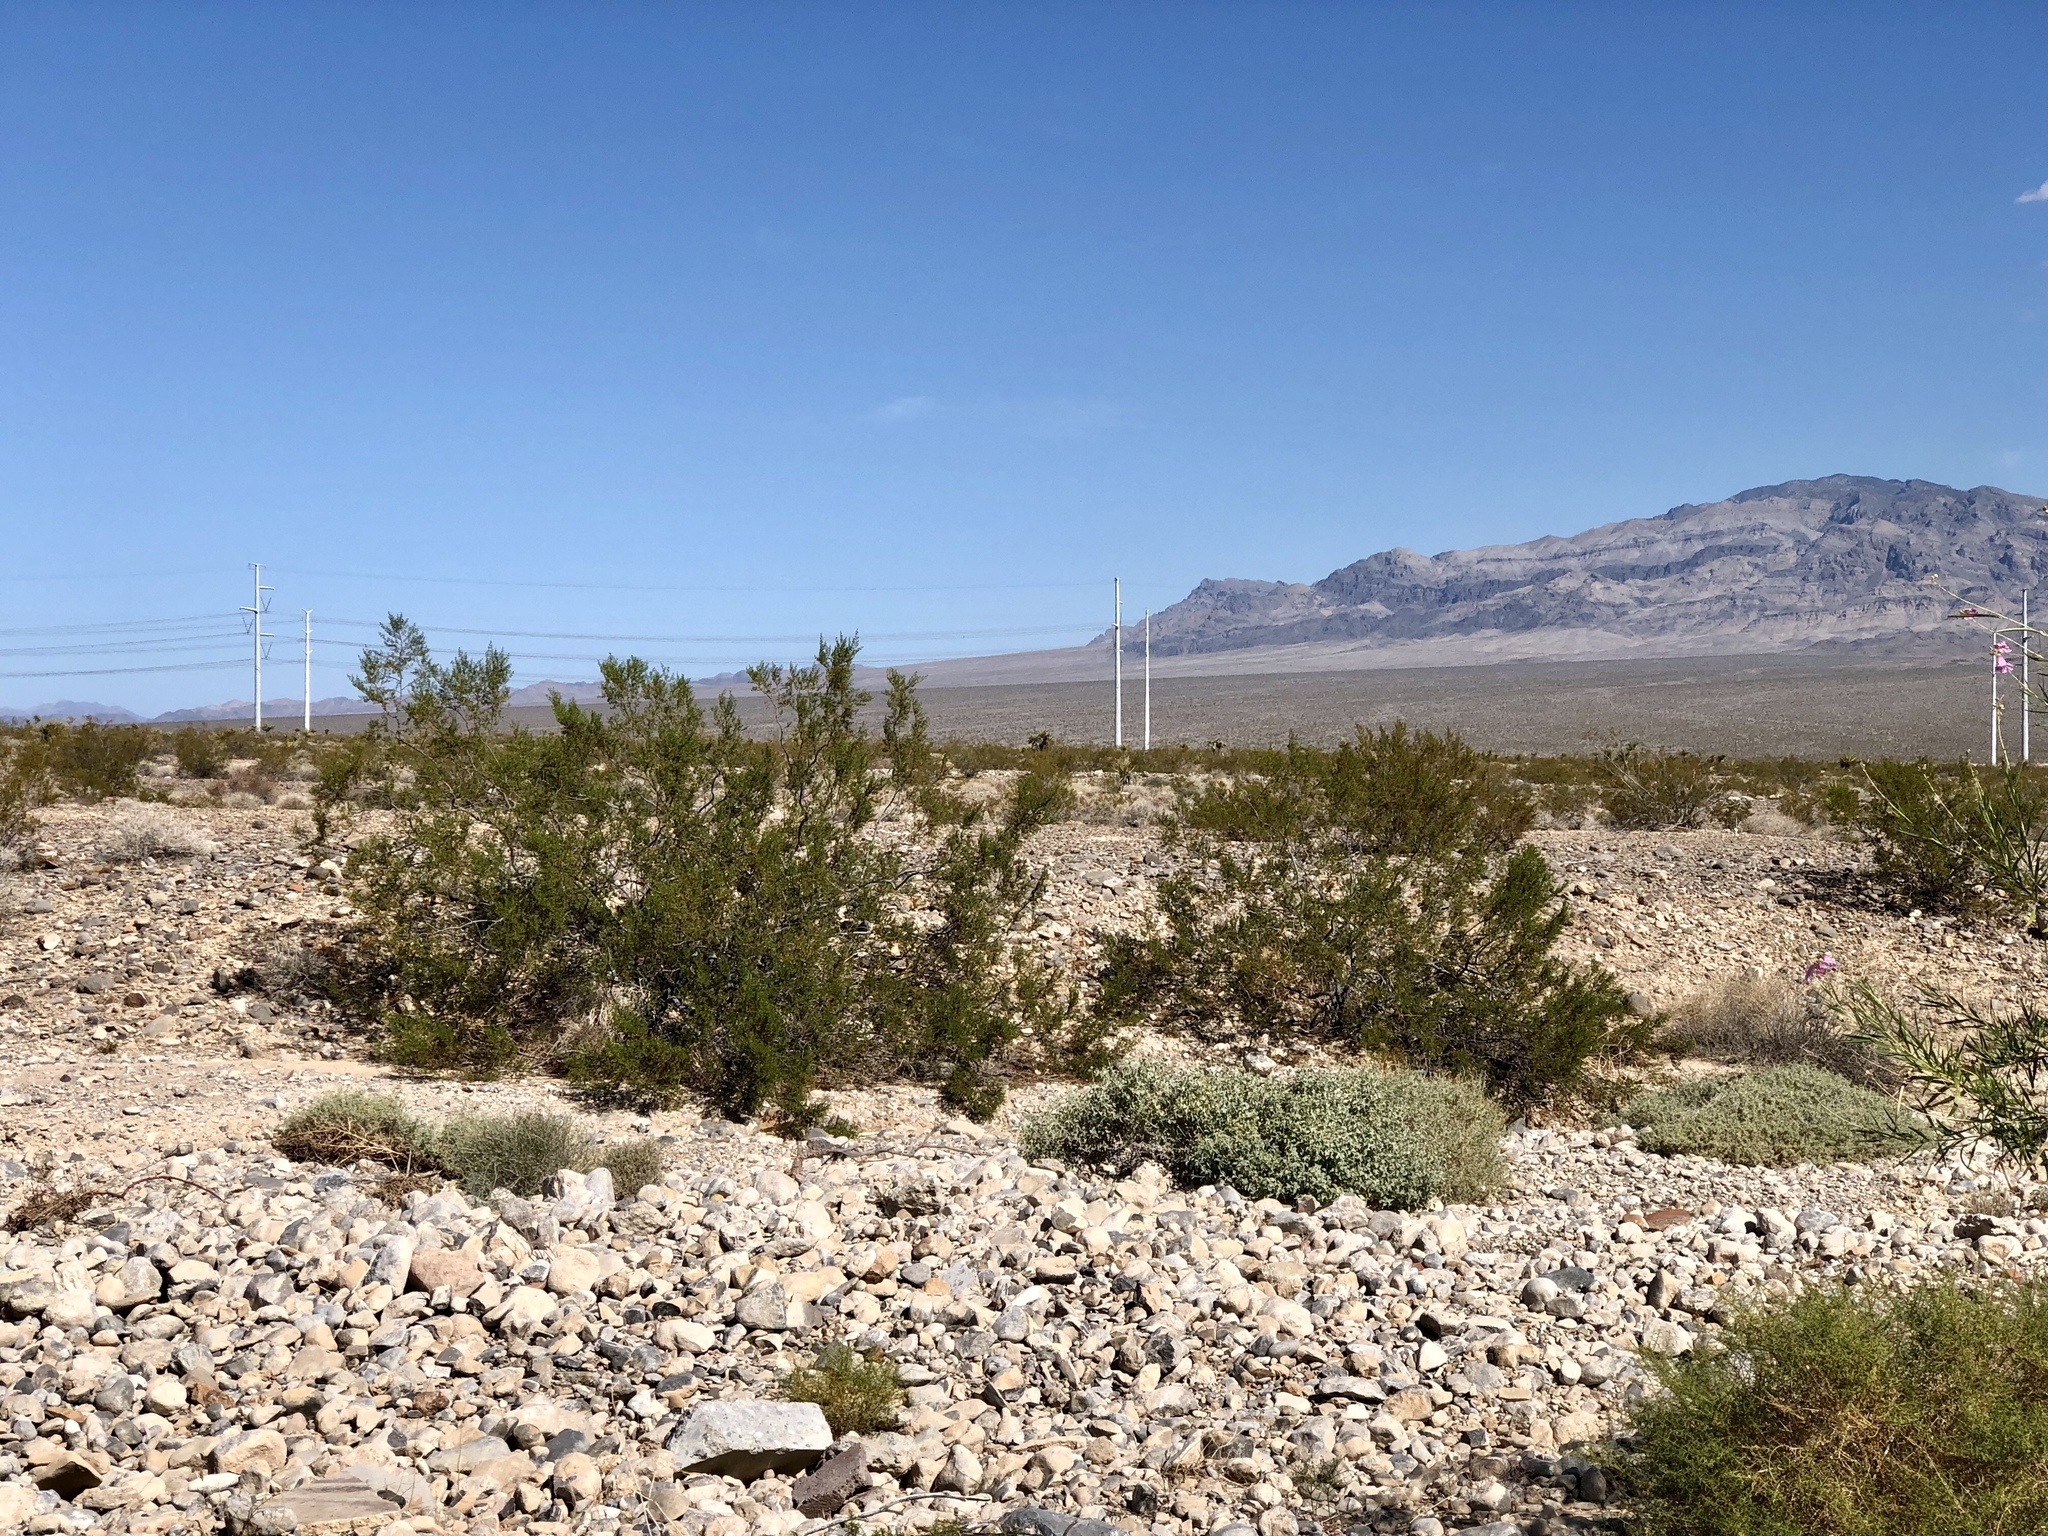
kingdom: Plantae
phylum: Tracheophyta
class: Magnoliopsida
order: Zygophyllales
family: Zygophyllaceae
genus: Larrea
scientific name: Larrea tridentata
